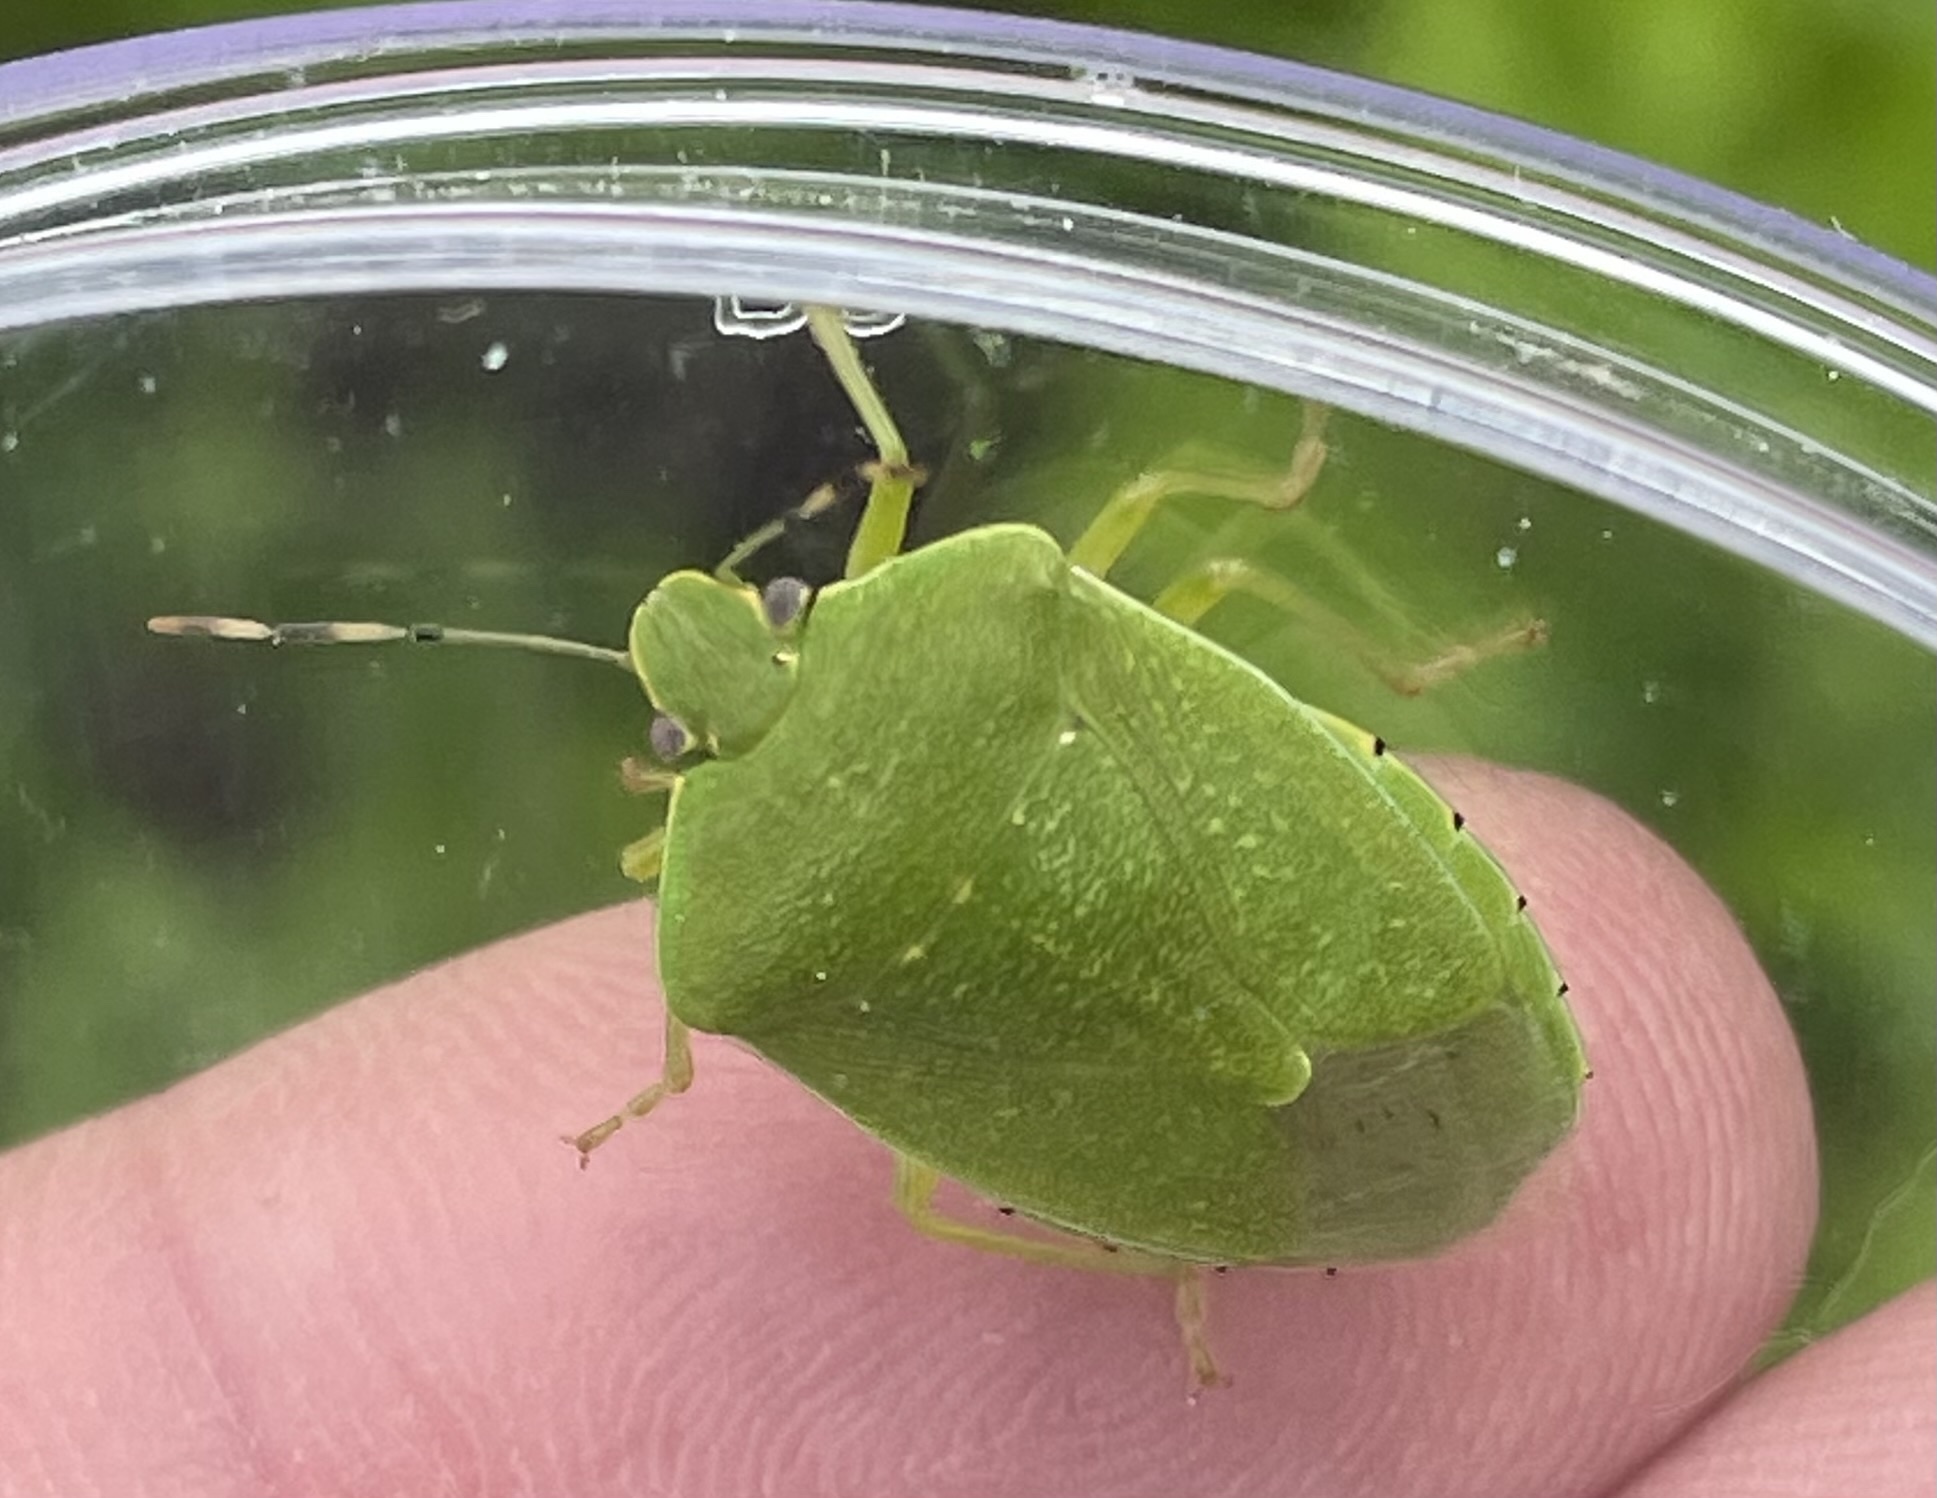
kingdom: Animalia
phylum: Arthropoda
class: Insecta
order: Hemiptera
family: Pentatomidae
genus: Chinavia
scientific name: Chinavia hilaris
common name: Green stink bug
